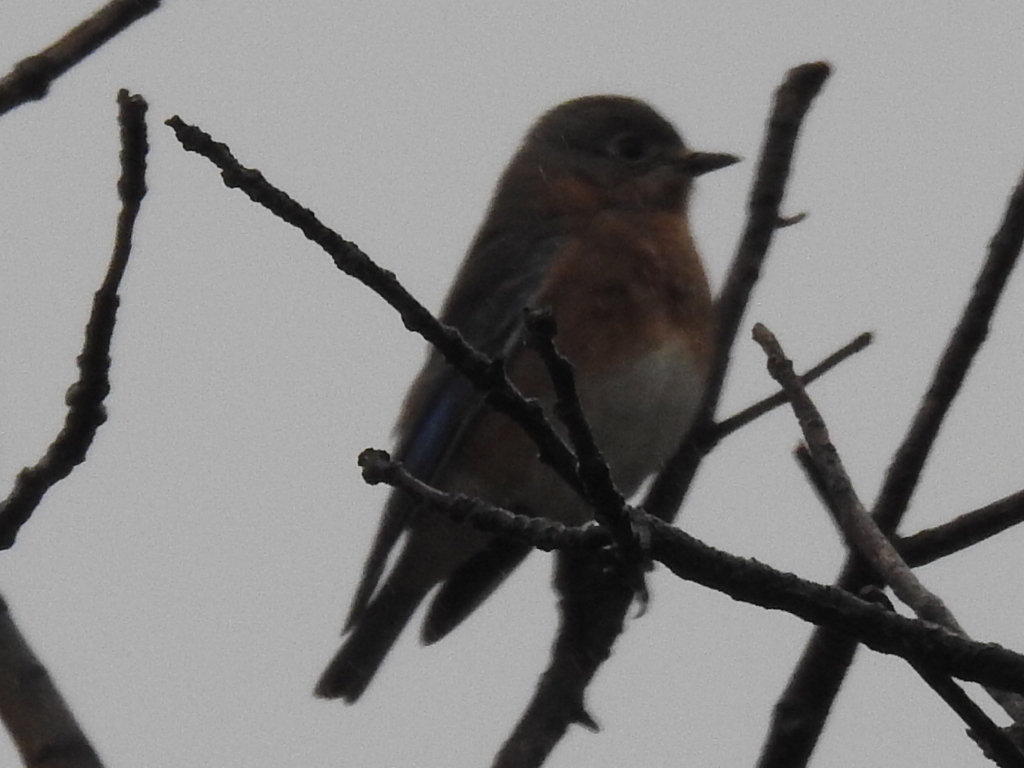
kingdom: Animalia
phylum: Chordata
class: Aves
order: Passeriformes
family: Turdidae
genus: Sialia
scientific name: Sialia sialis
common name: Eastern bluebird
